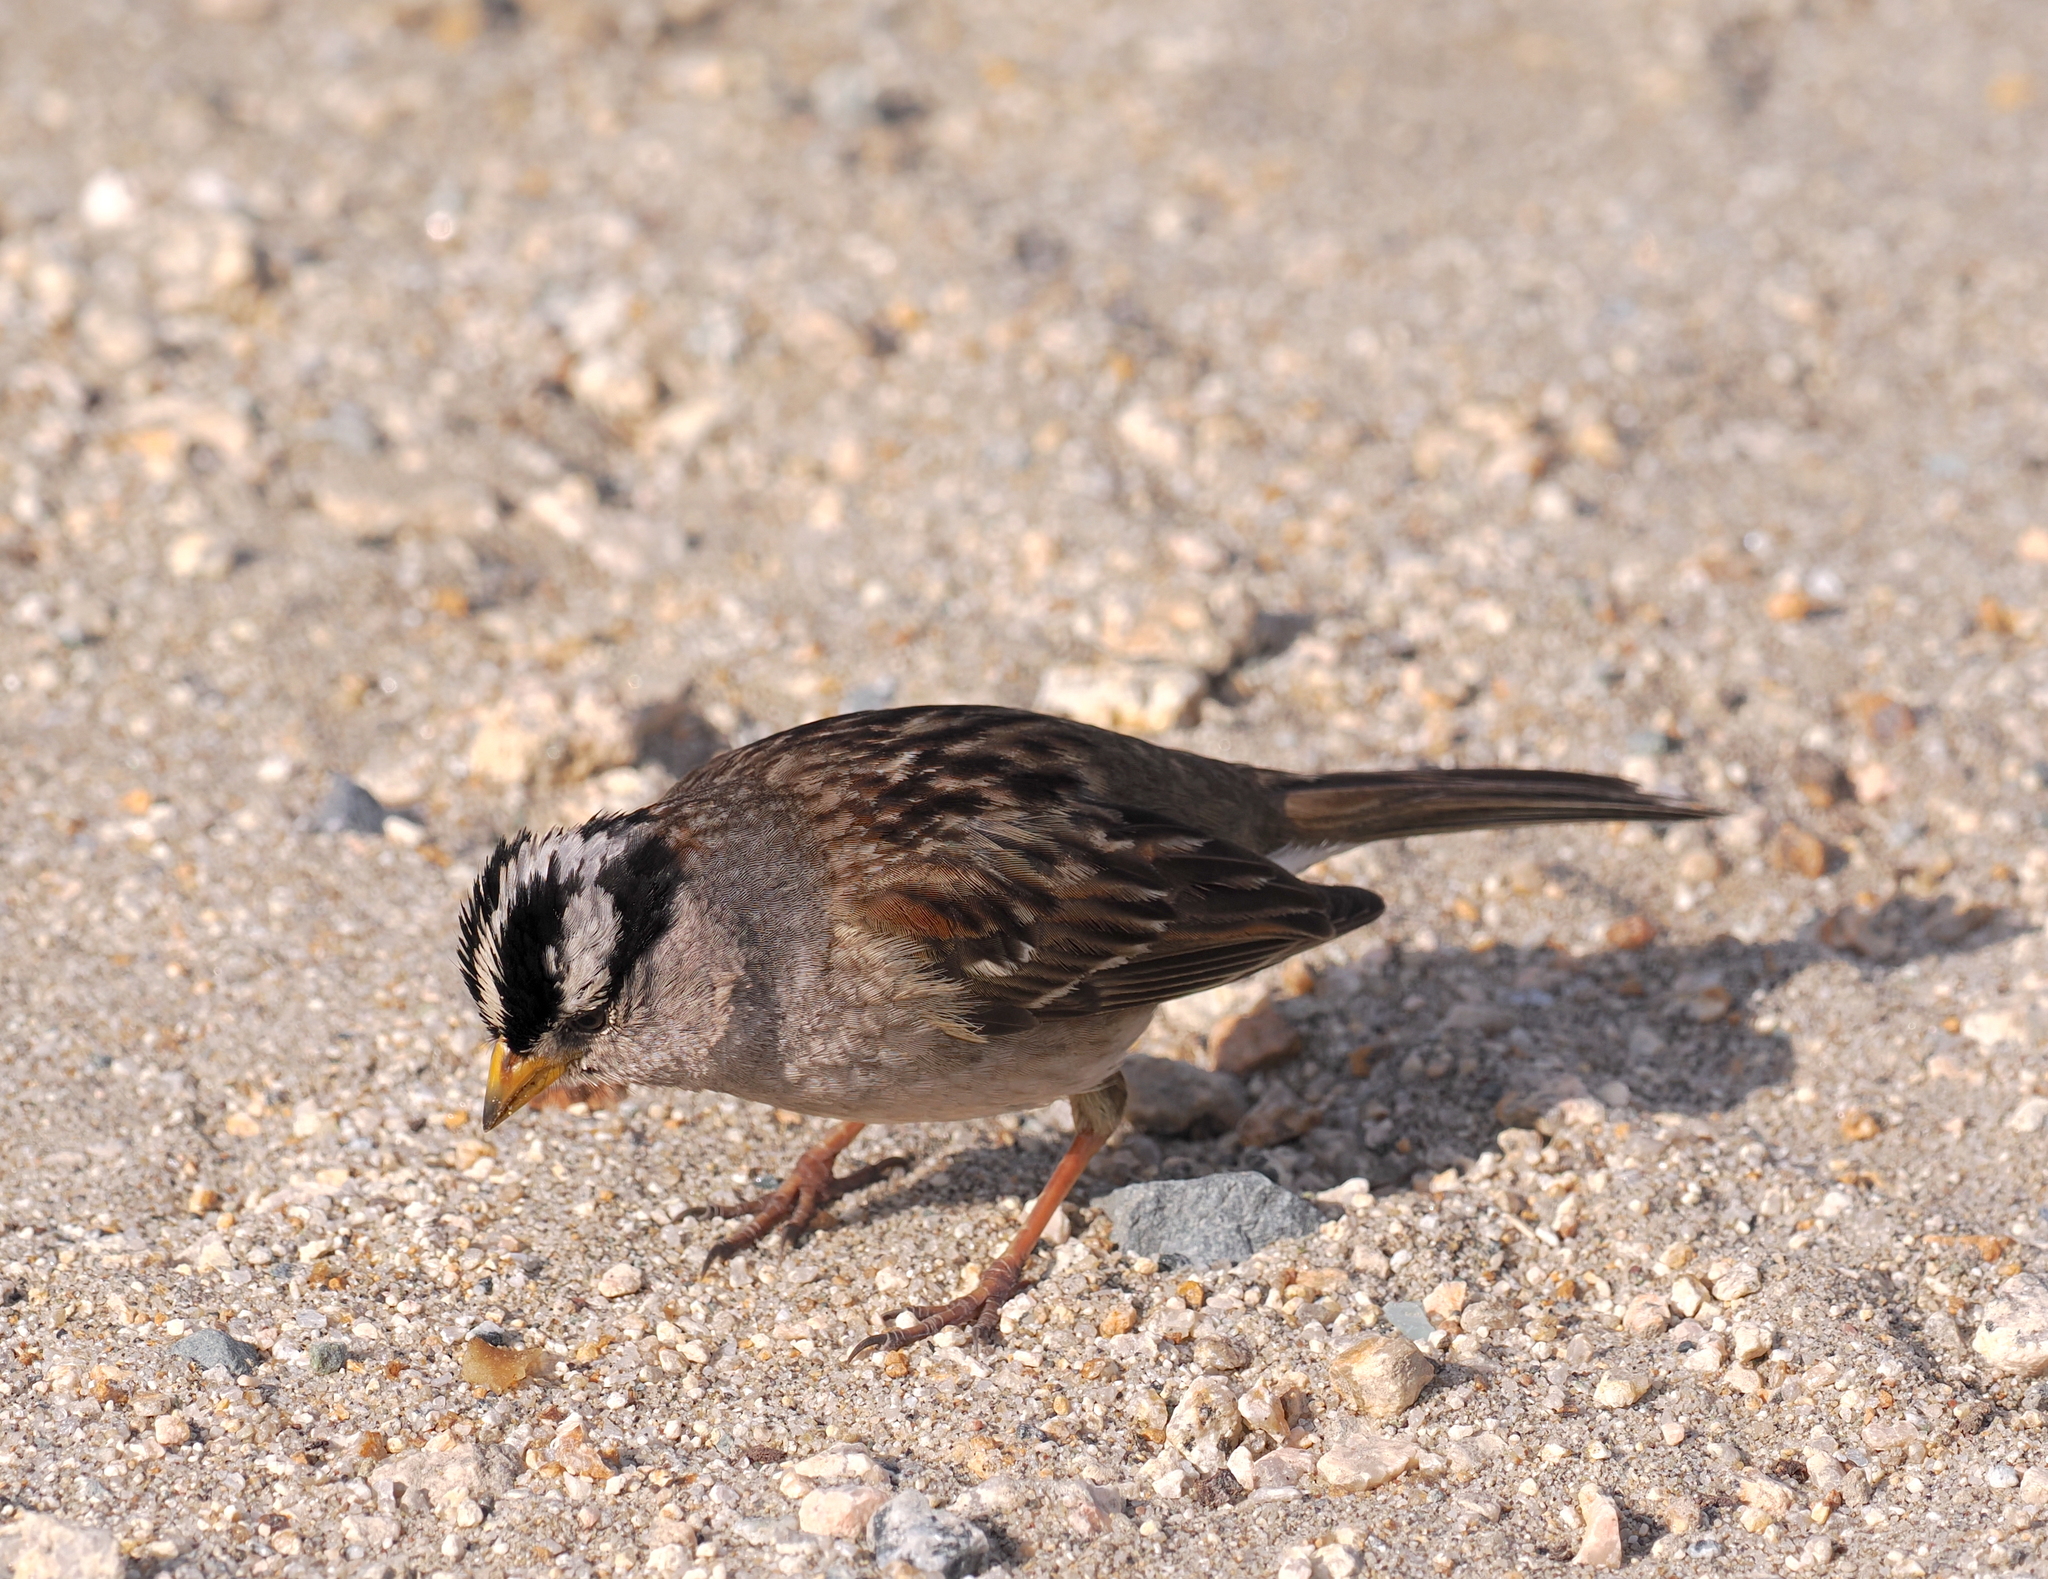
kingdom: Animalia
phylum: Chordata
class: Aves
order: Passeriformes
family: Passerellidae
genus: Zonotrichia
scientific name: Zonotrichia leucophrys
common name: White-crowned sparrow
